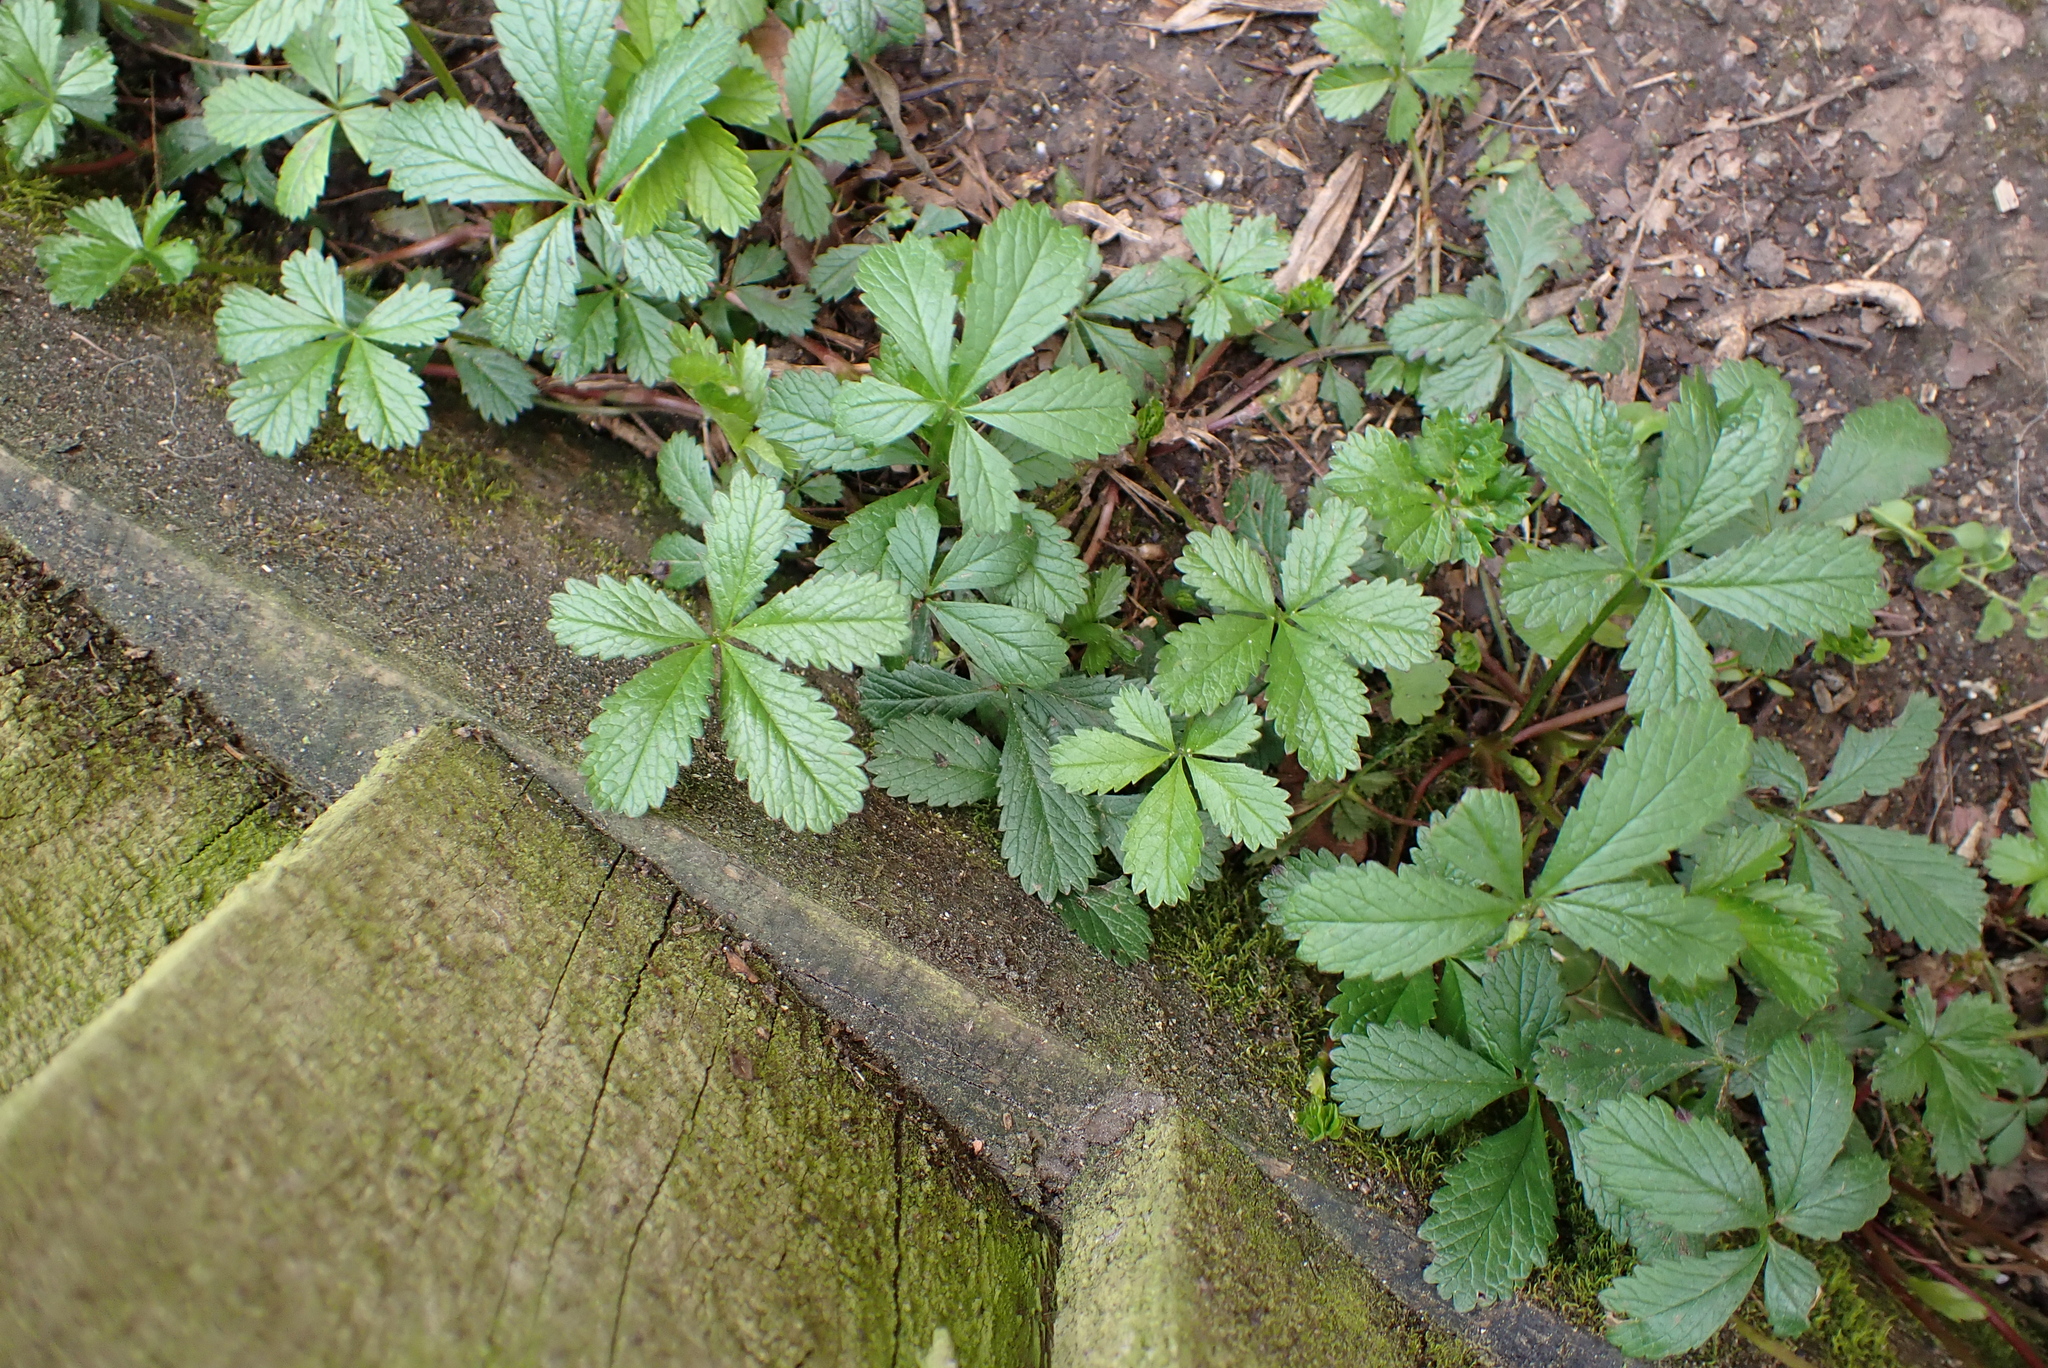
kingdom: Plantae
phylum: Tracheophyta
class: Magnoliopsida
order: Rosales
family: Rosaceae
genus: Potentilla
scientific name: Potentilla reptans
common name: Creeping cinquefoil
